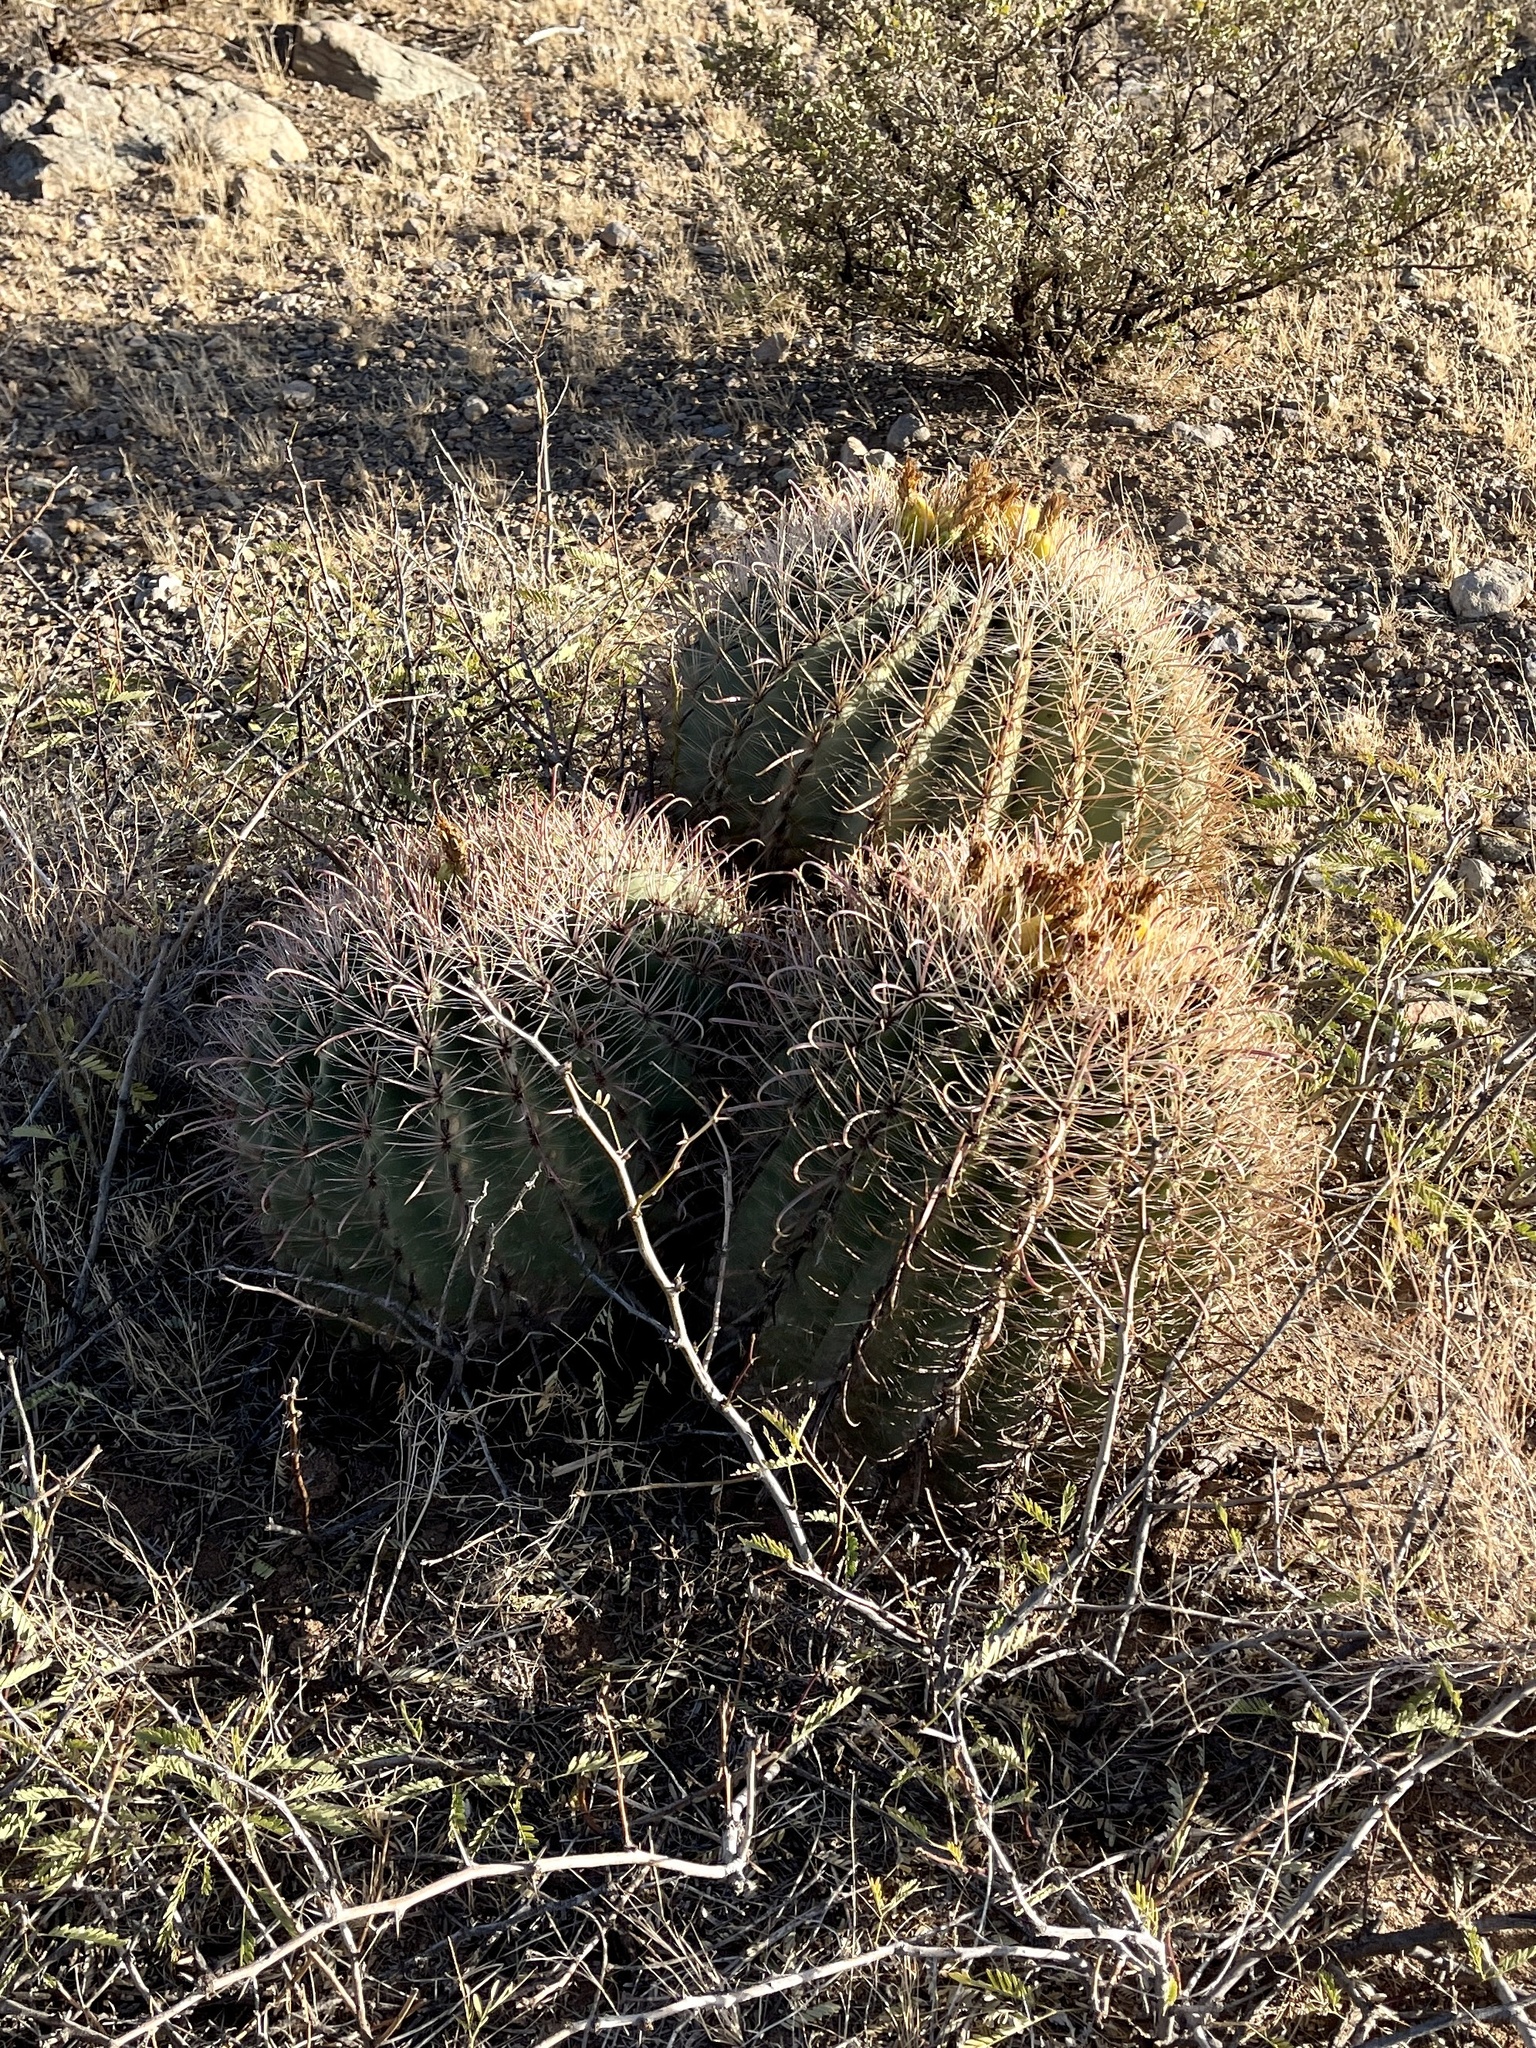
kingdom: Plantae
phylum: Tracheophyta
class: Magnoliopsida
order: Caryophyllales
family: Cactaceae
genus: Ferocactus
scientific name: Ferocactus wislizeni
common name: Candy barrel cactus
